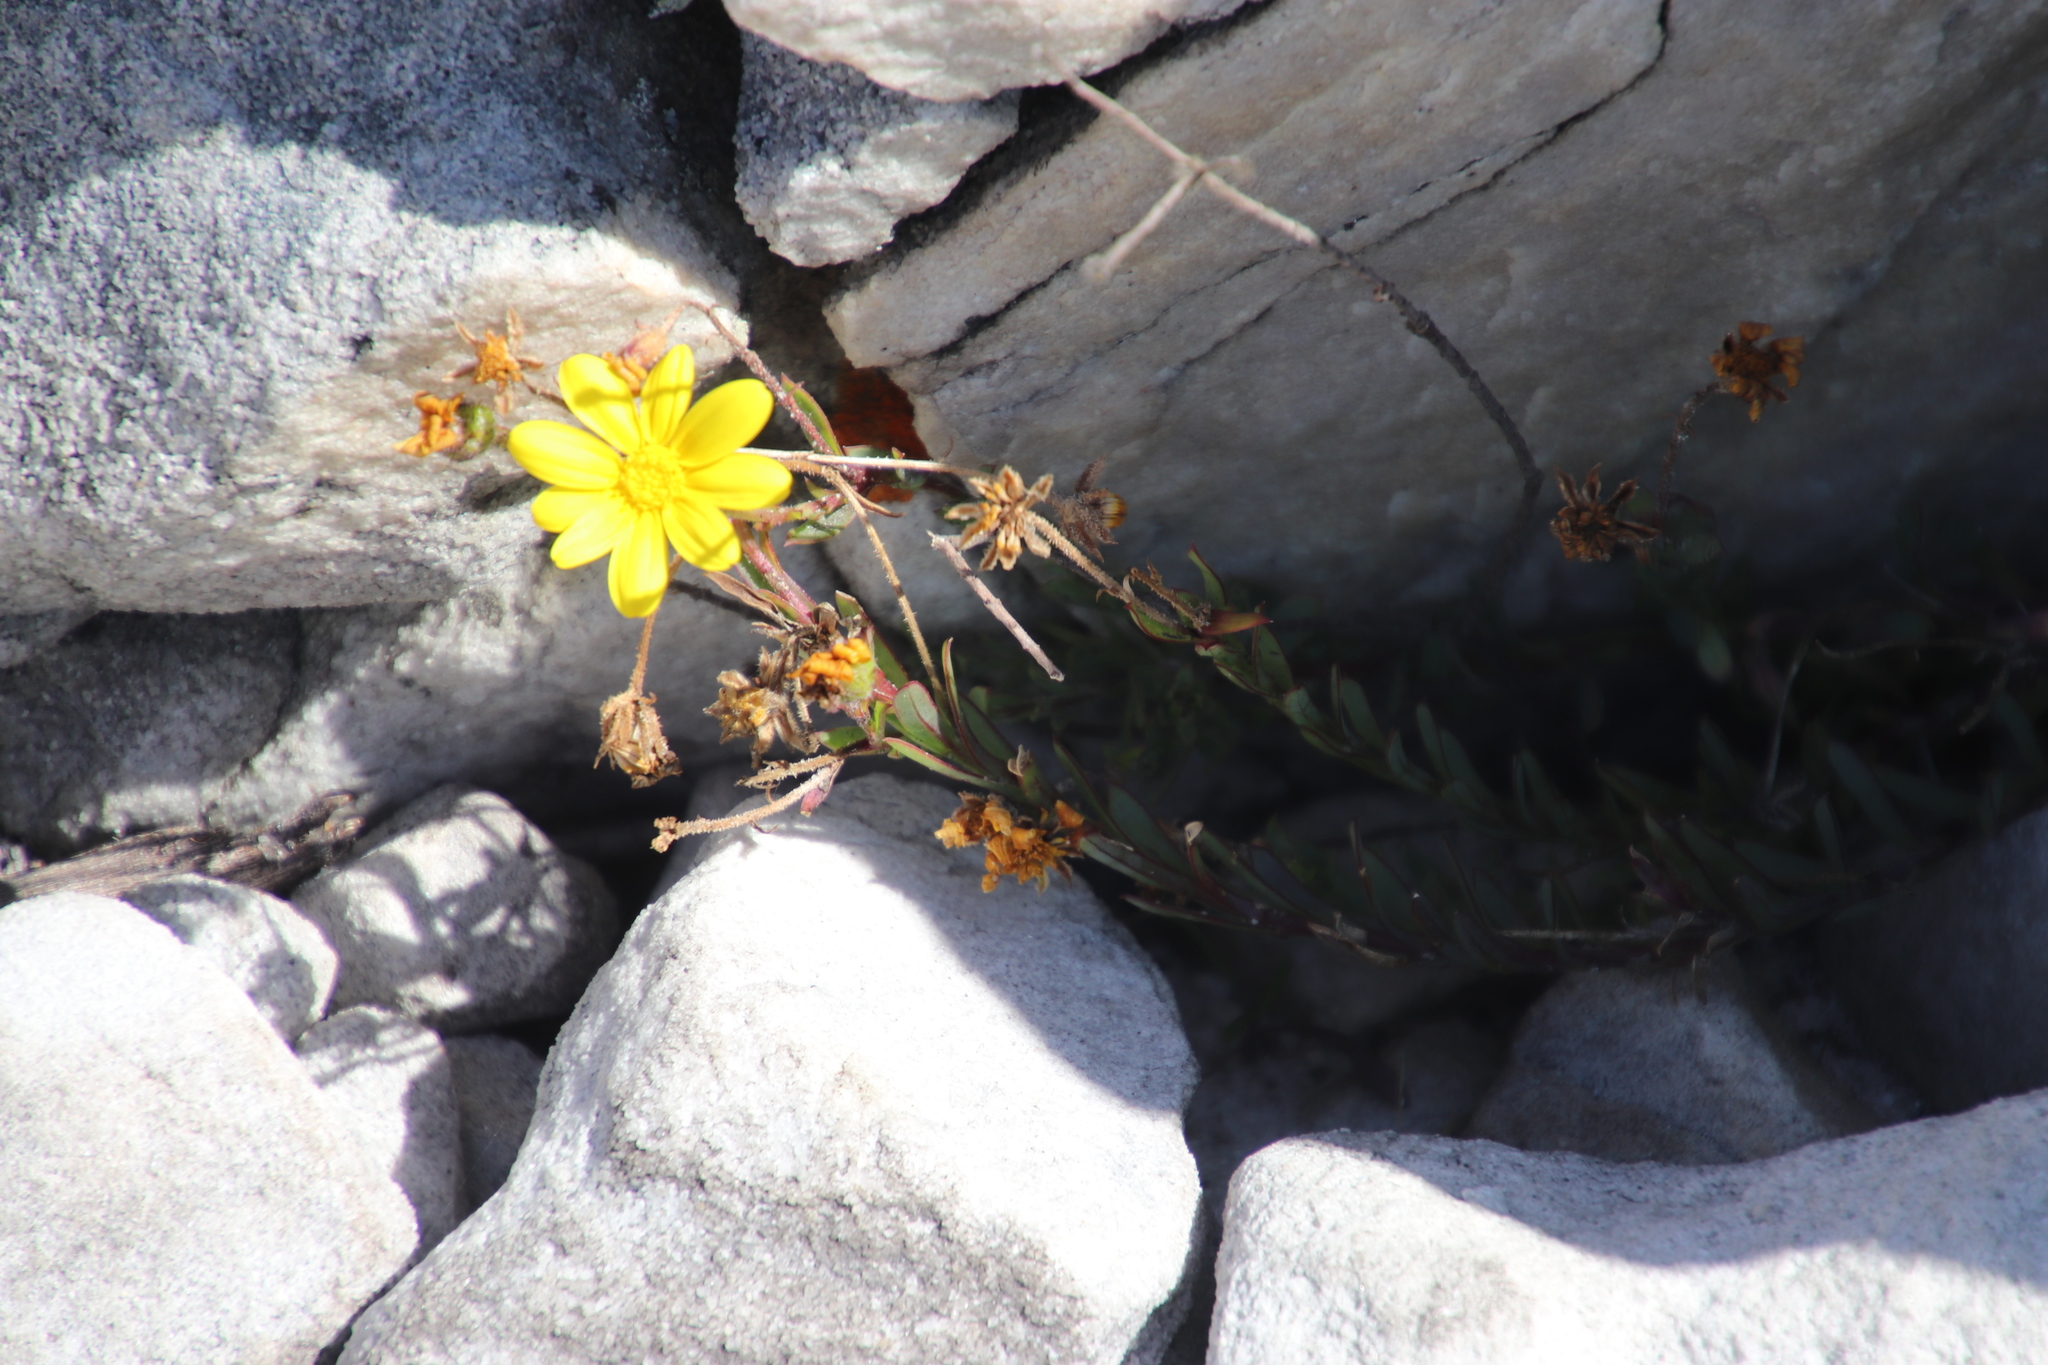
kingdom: Plantae
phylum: Tracheophyta
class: Magnoliopsida
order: Asterales
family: Asteraceae
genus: Osteospermum
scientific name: Osteospermum polygaloides
